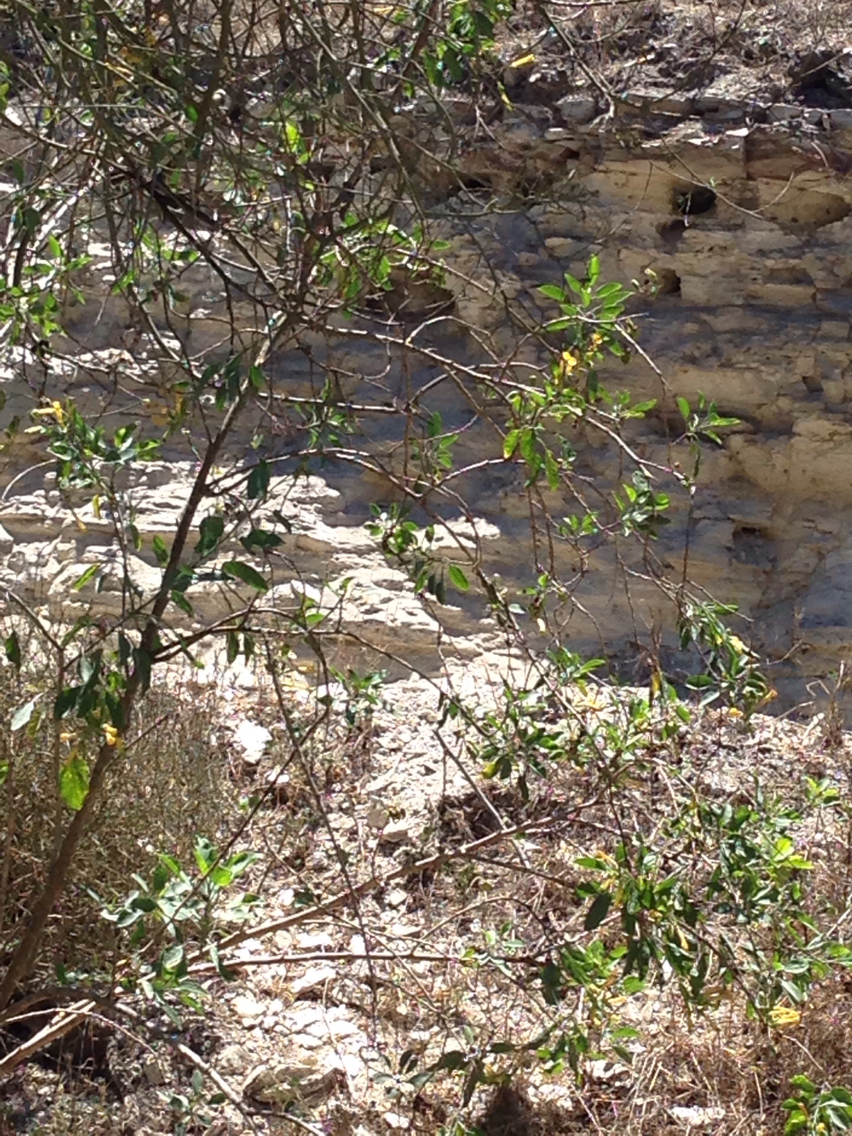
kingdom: Plantae
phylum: Tracheophyta
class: Magnoliopsida
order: Solanales
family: Solanaceae
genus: Nicotiana
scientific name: Nicotiana glauca
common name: Tree tobacco
